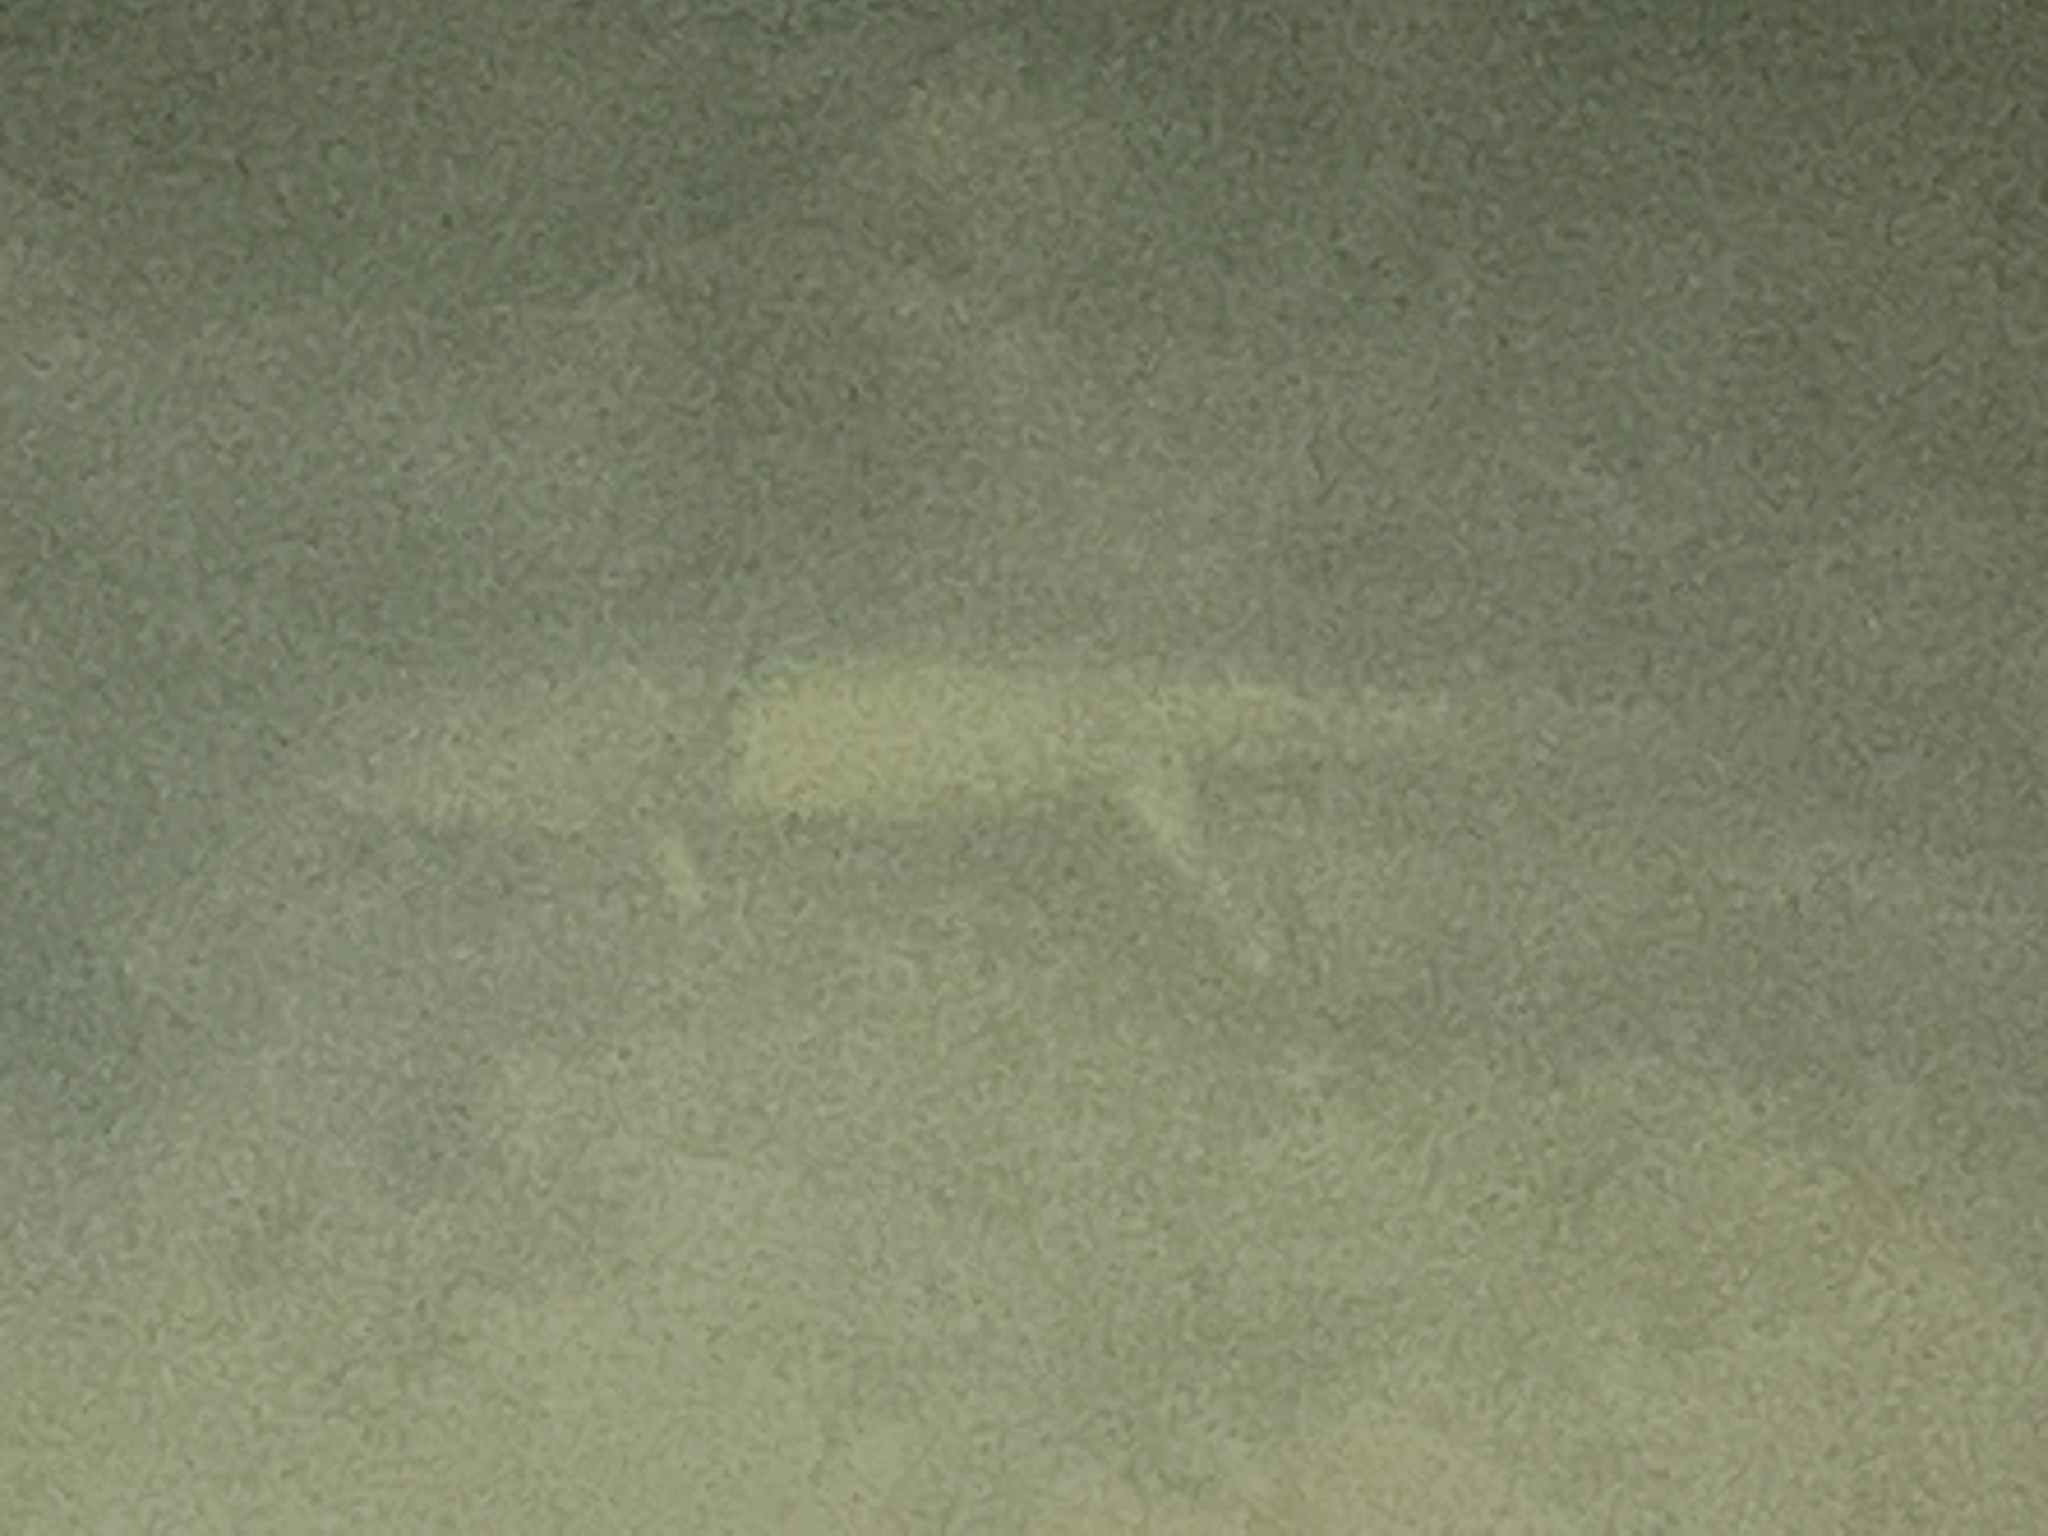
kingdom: Animalia
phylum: Chordata
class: Amphibia
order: Caudata
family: Ambystomatidae
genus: Ambystoma
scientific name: Ambystoma mavortium
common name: Western tiger salamander
